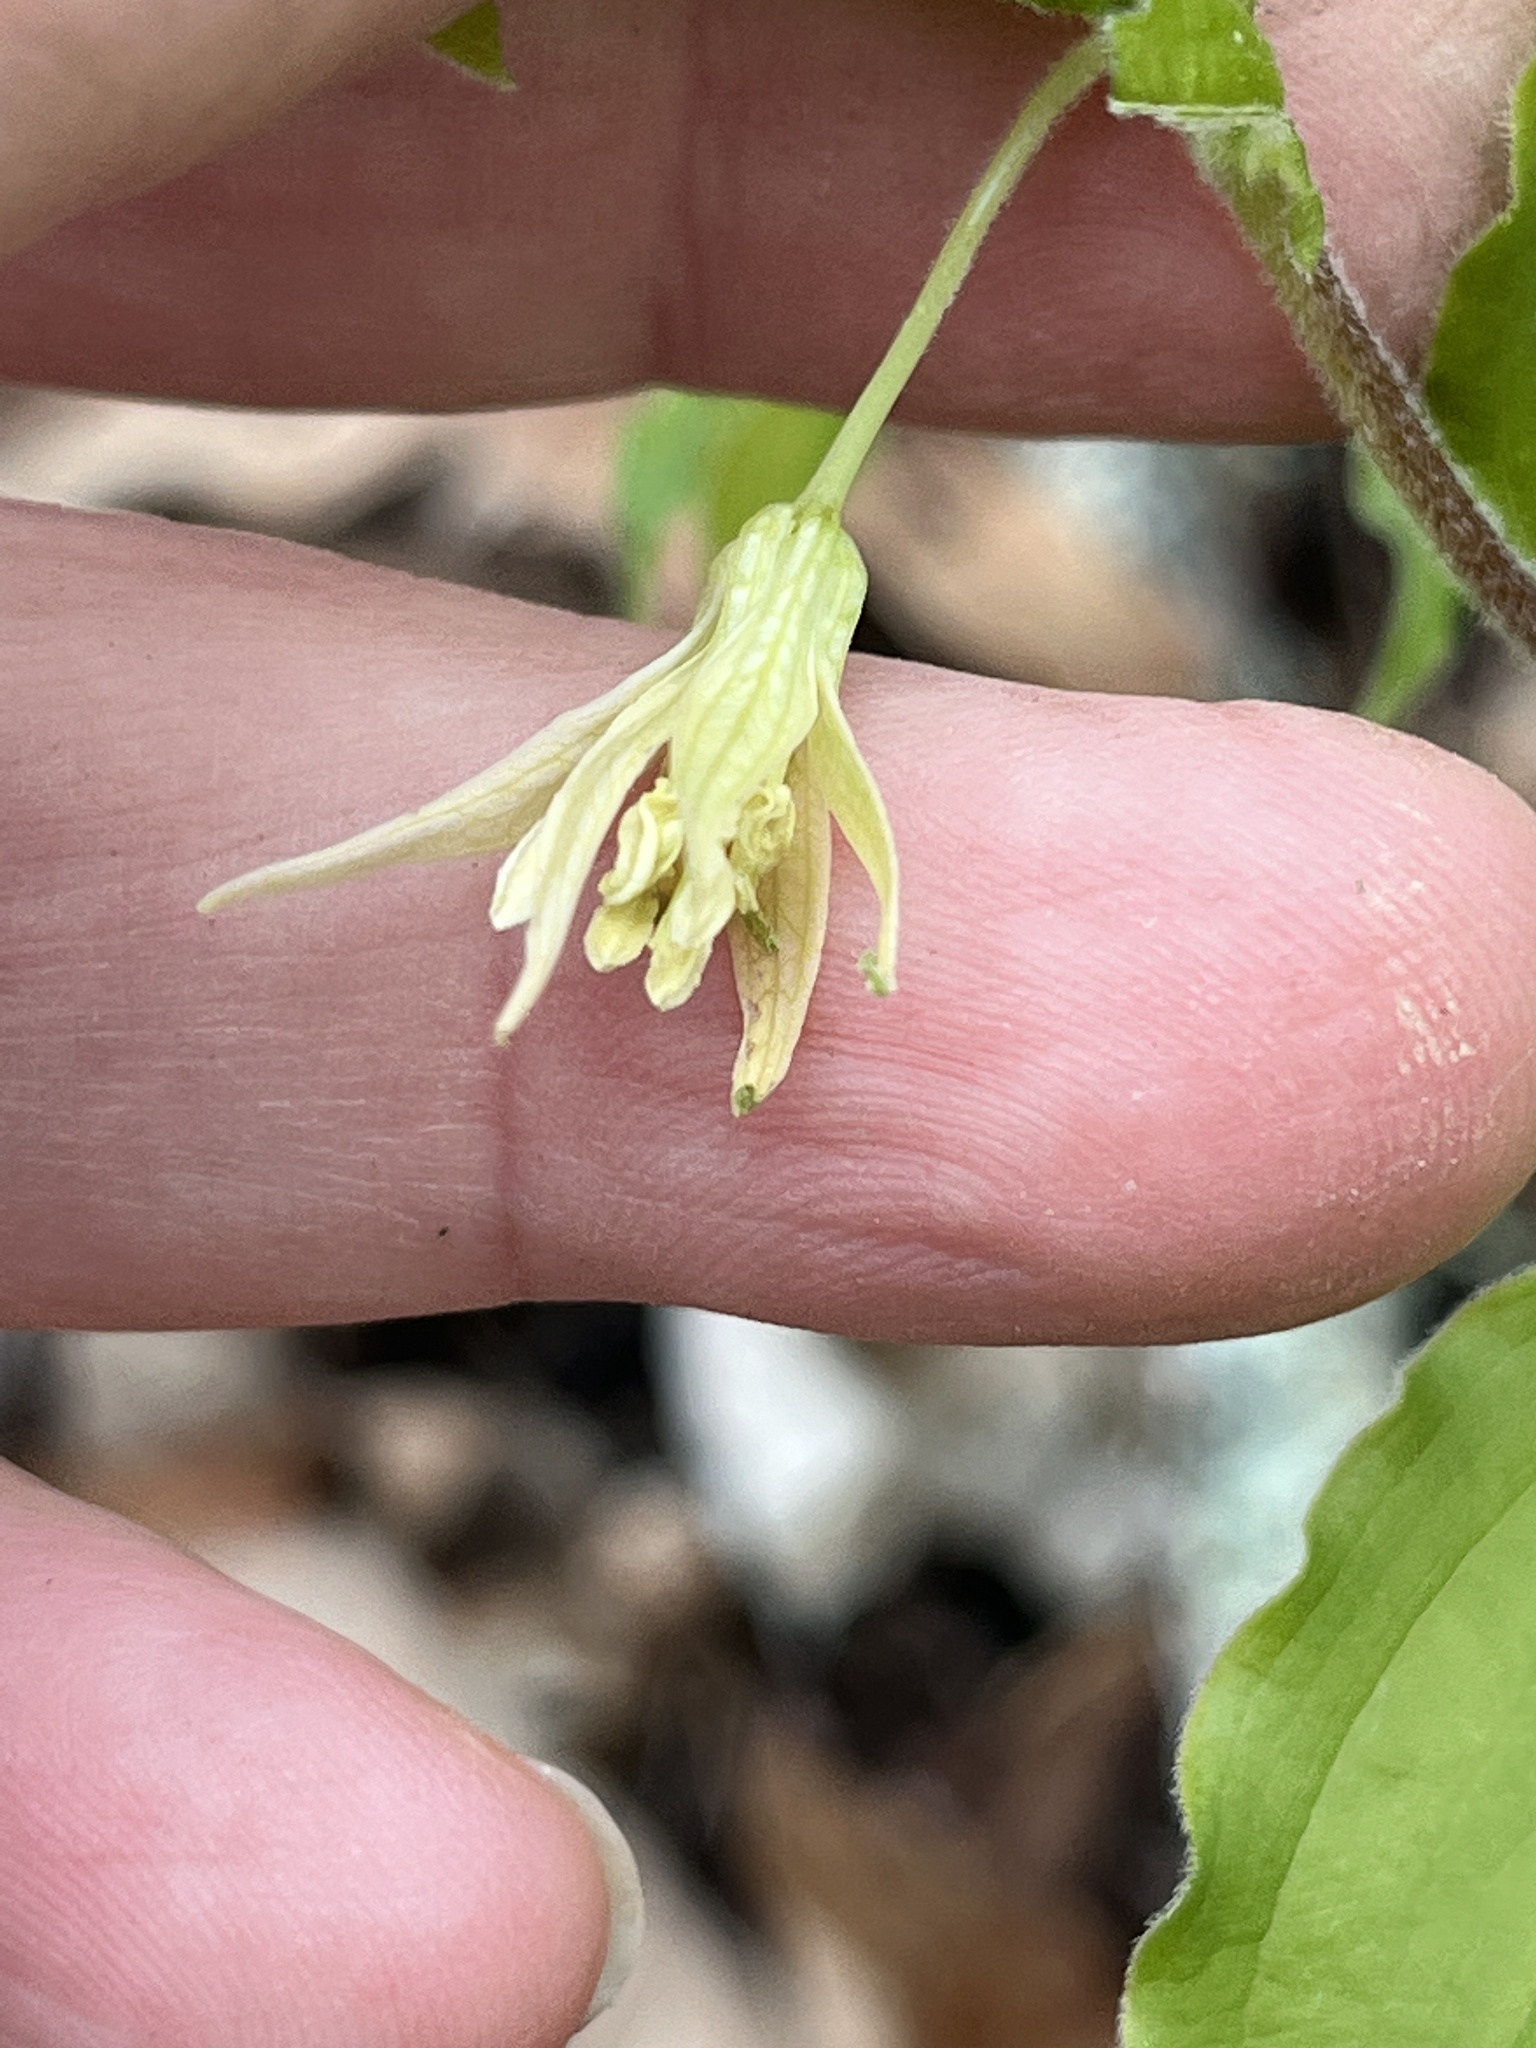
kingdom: Plantae
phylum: Tracheophyta
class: Liliopsida
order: Liliales
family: Liliaceae
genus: Prosartes
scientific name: Prosartes lanuginosa
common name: Hairy mandarin
